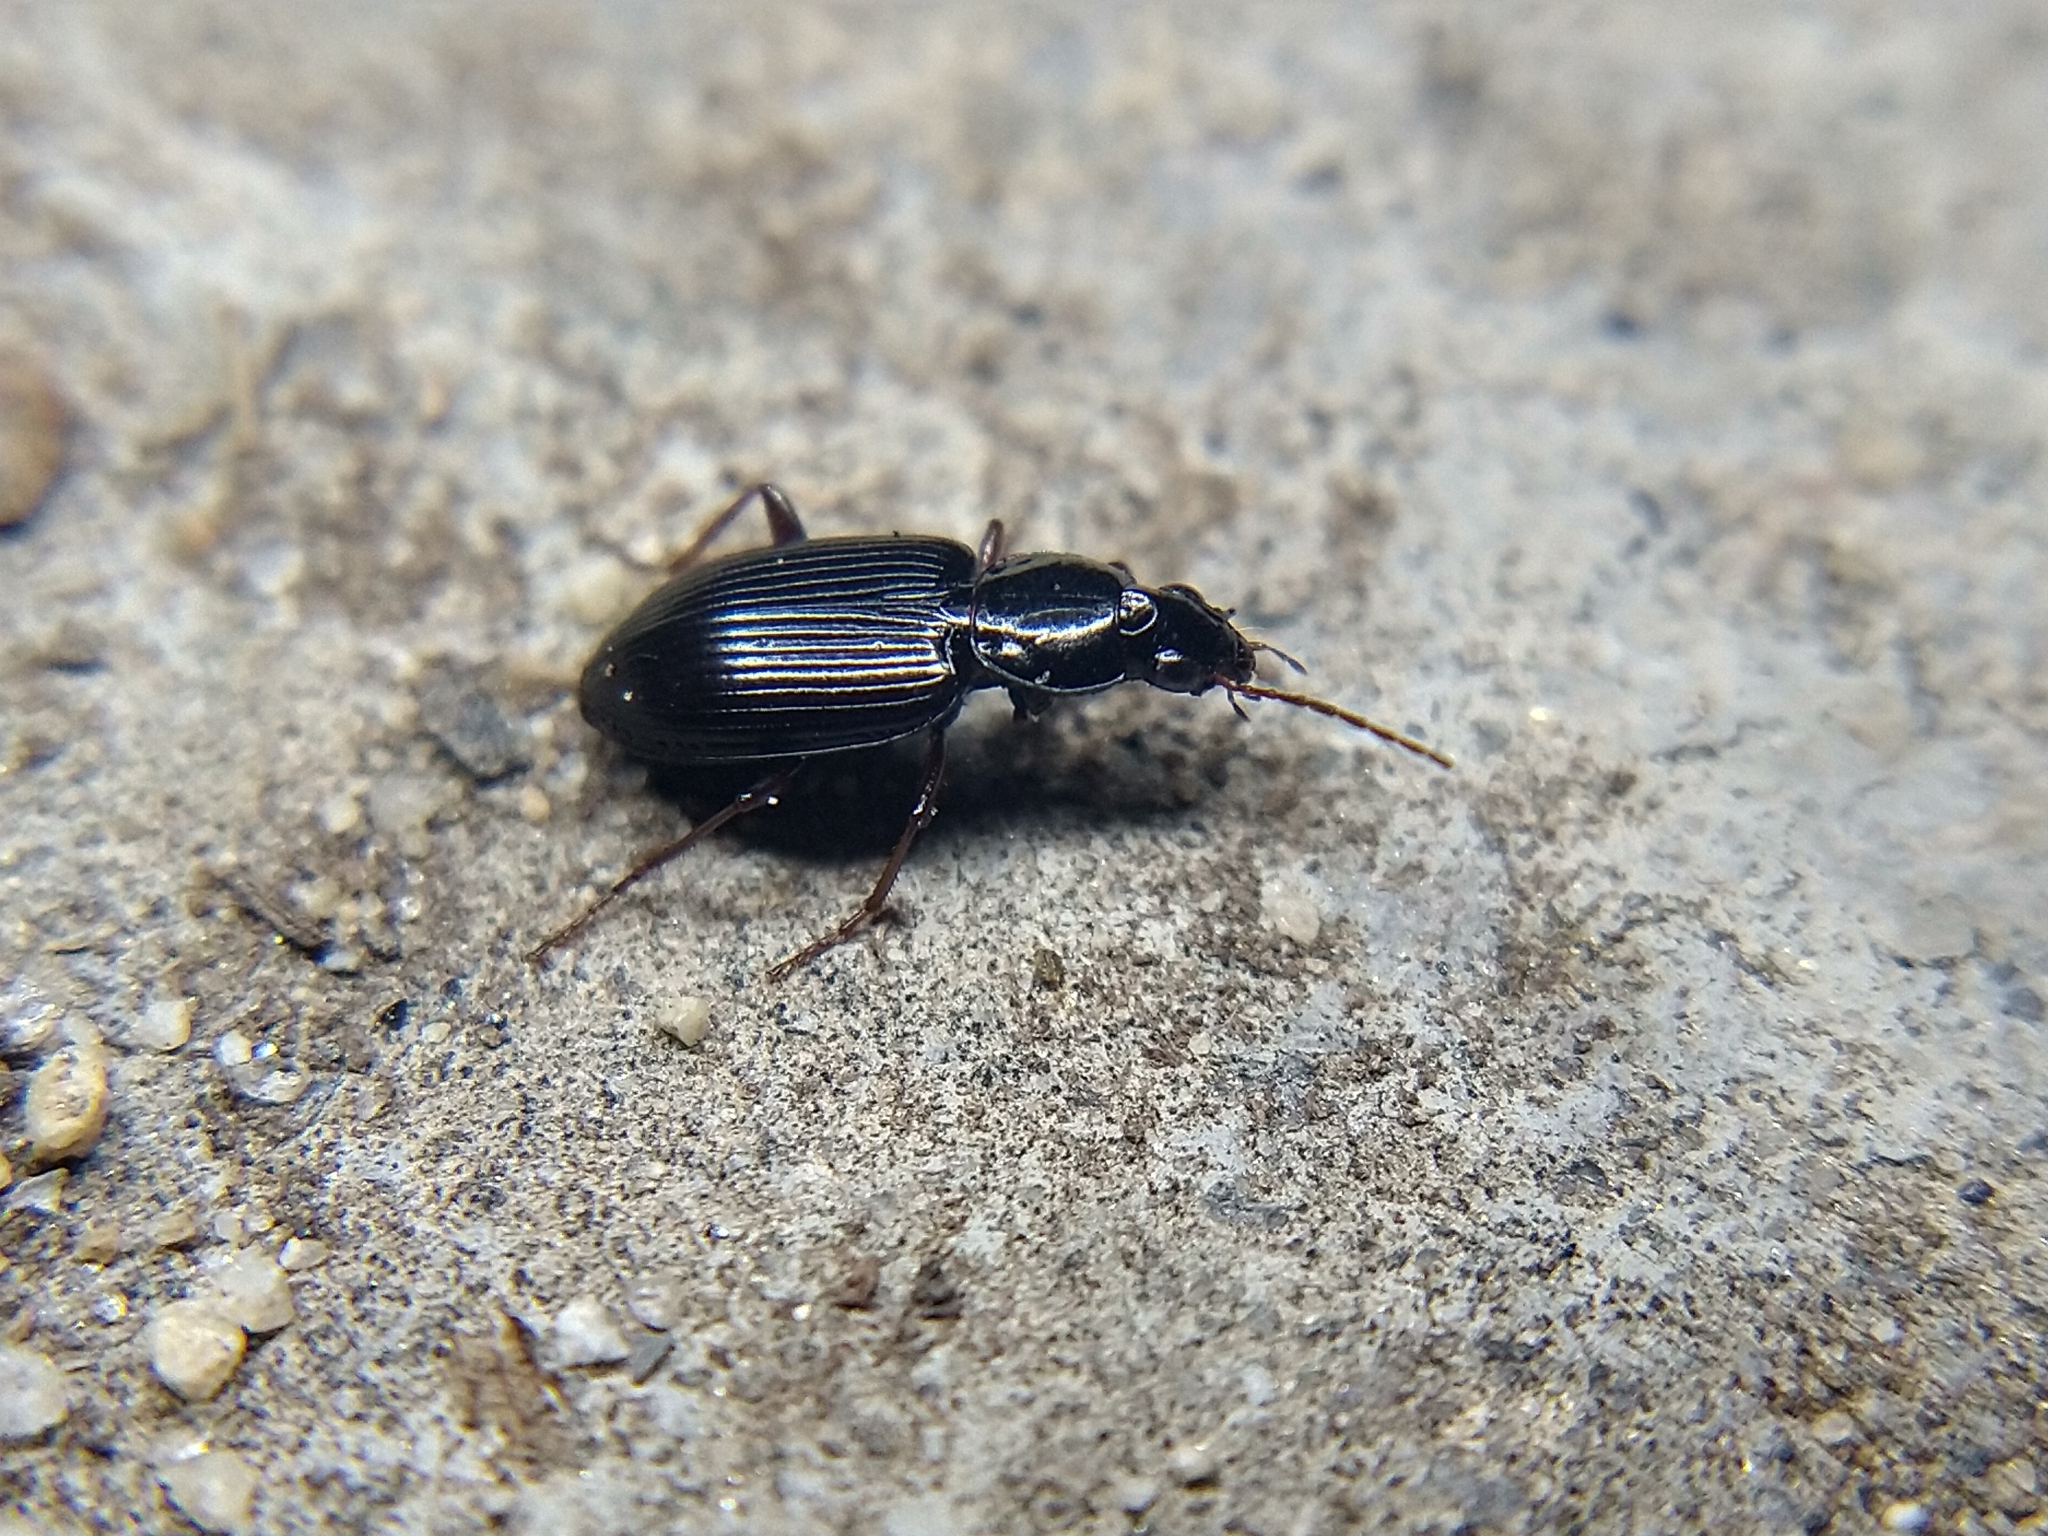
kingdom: Animalia
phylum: Arthropoda
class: Insecta
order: Coleoptera
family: Carabidae
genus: Agonum
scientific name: Agonum punctiforme
